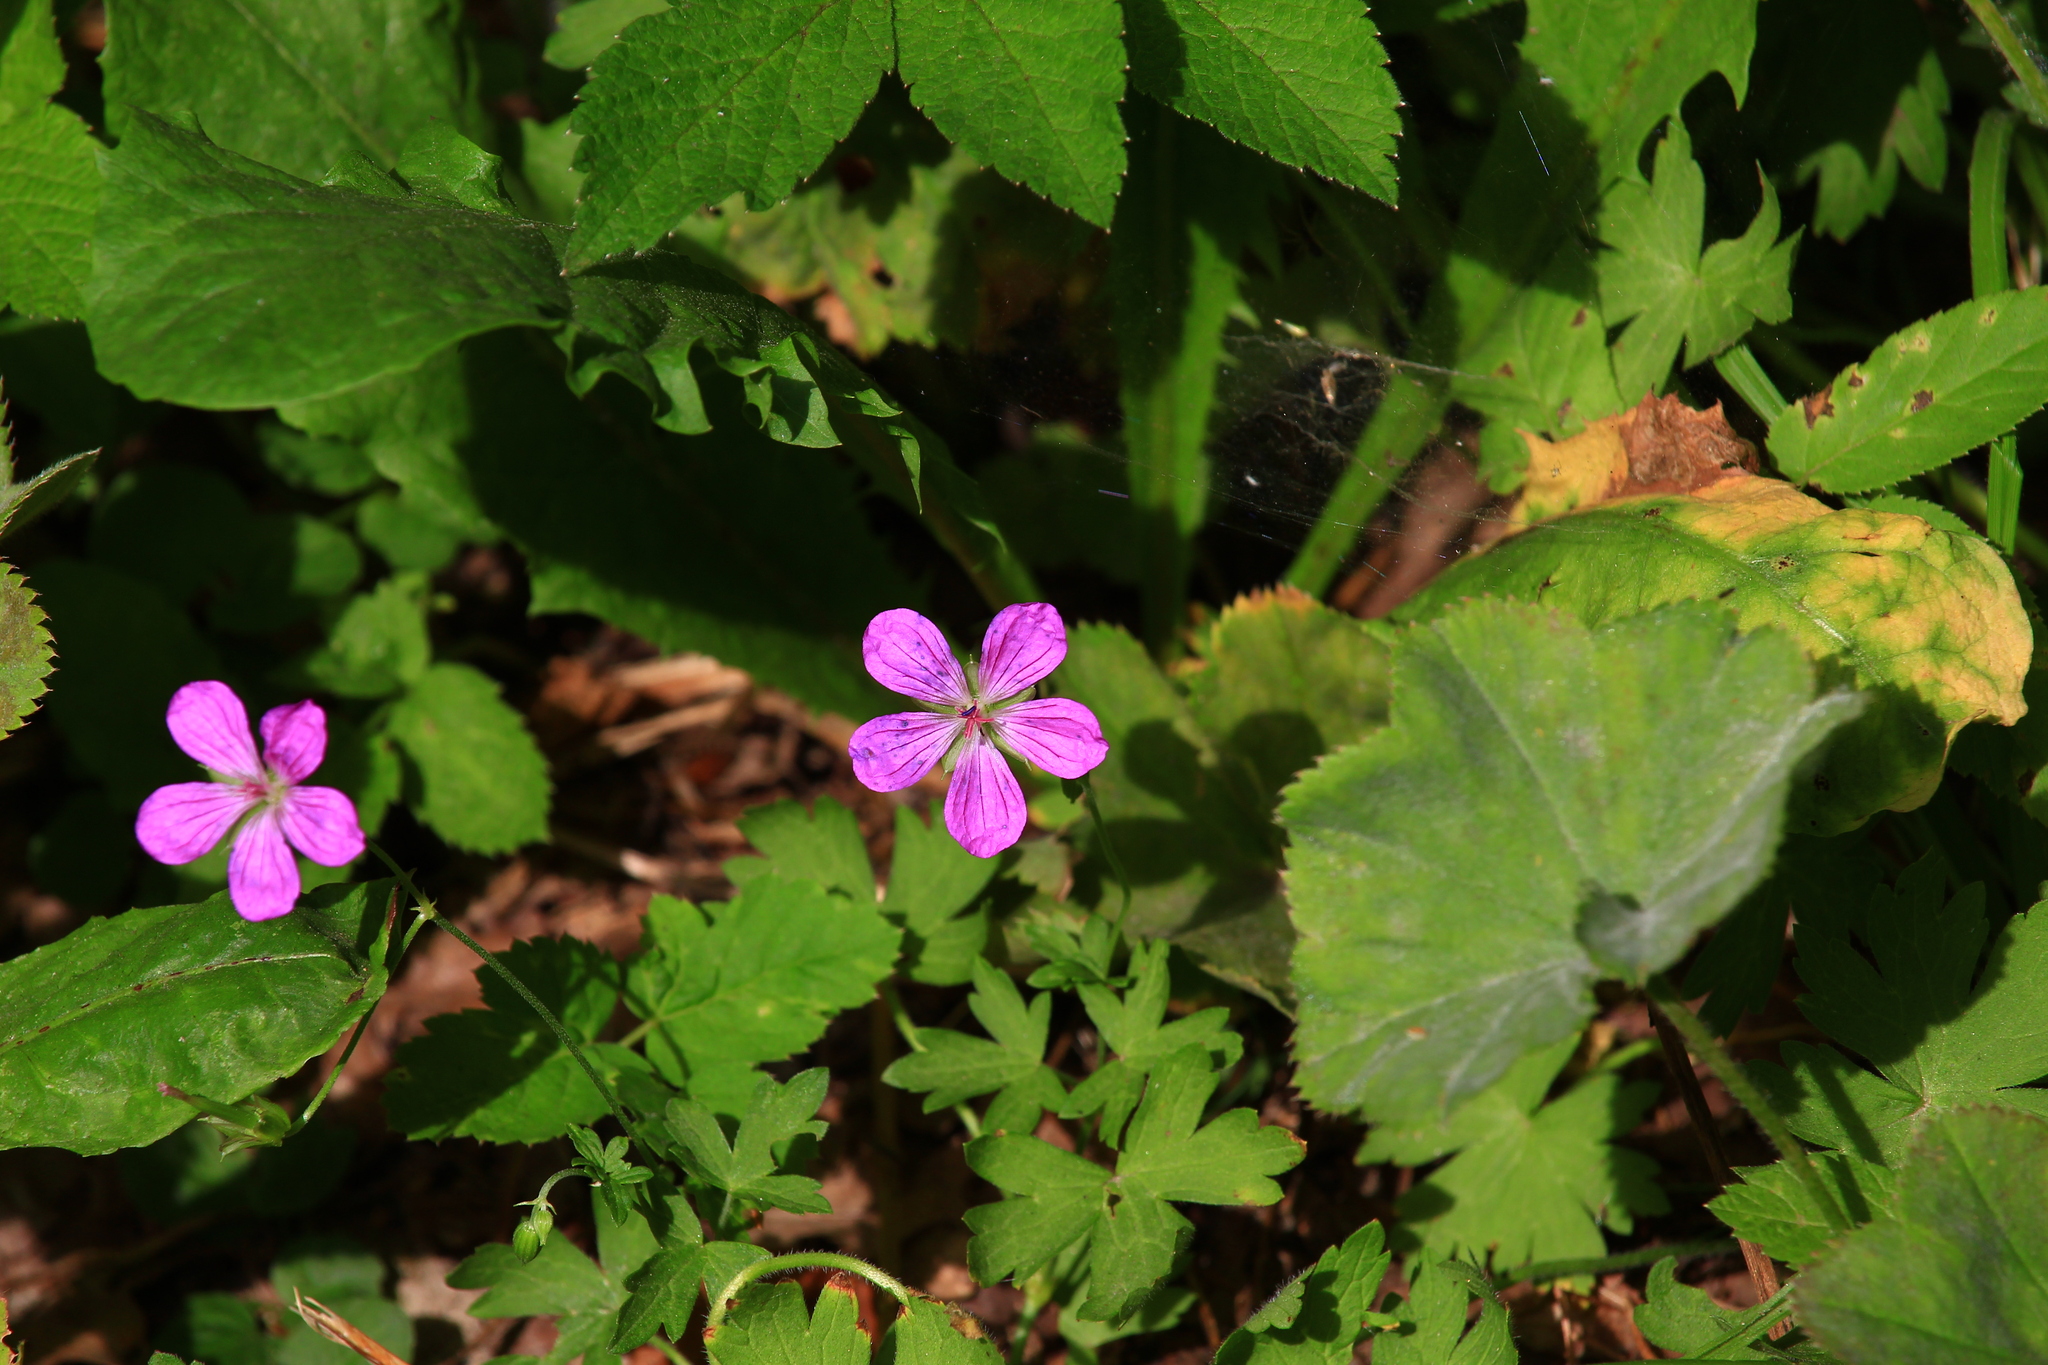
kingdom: Plantae
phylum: Tracheophyta
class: Magnoliopsida
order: Geraniales
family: Geraniaceae
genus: Geranium
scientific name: Geranium palustre
